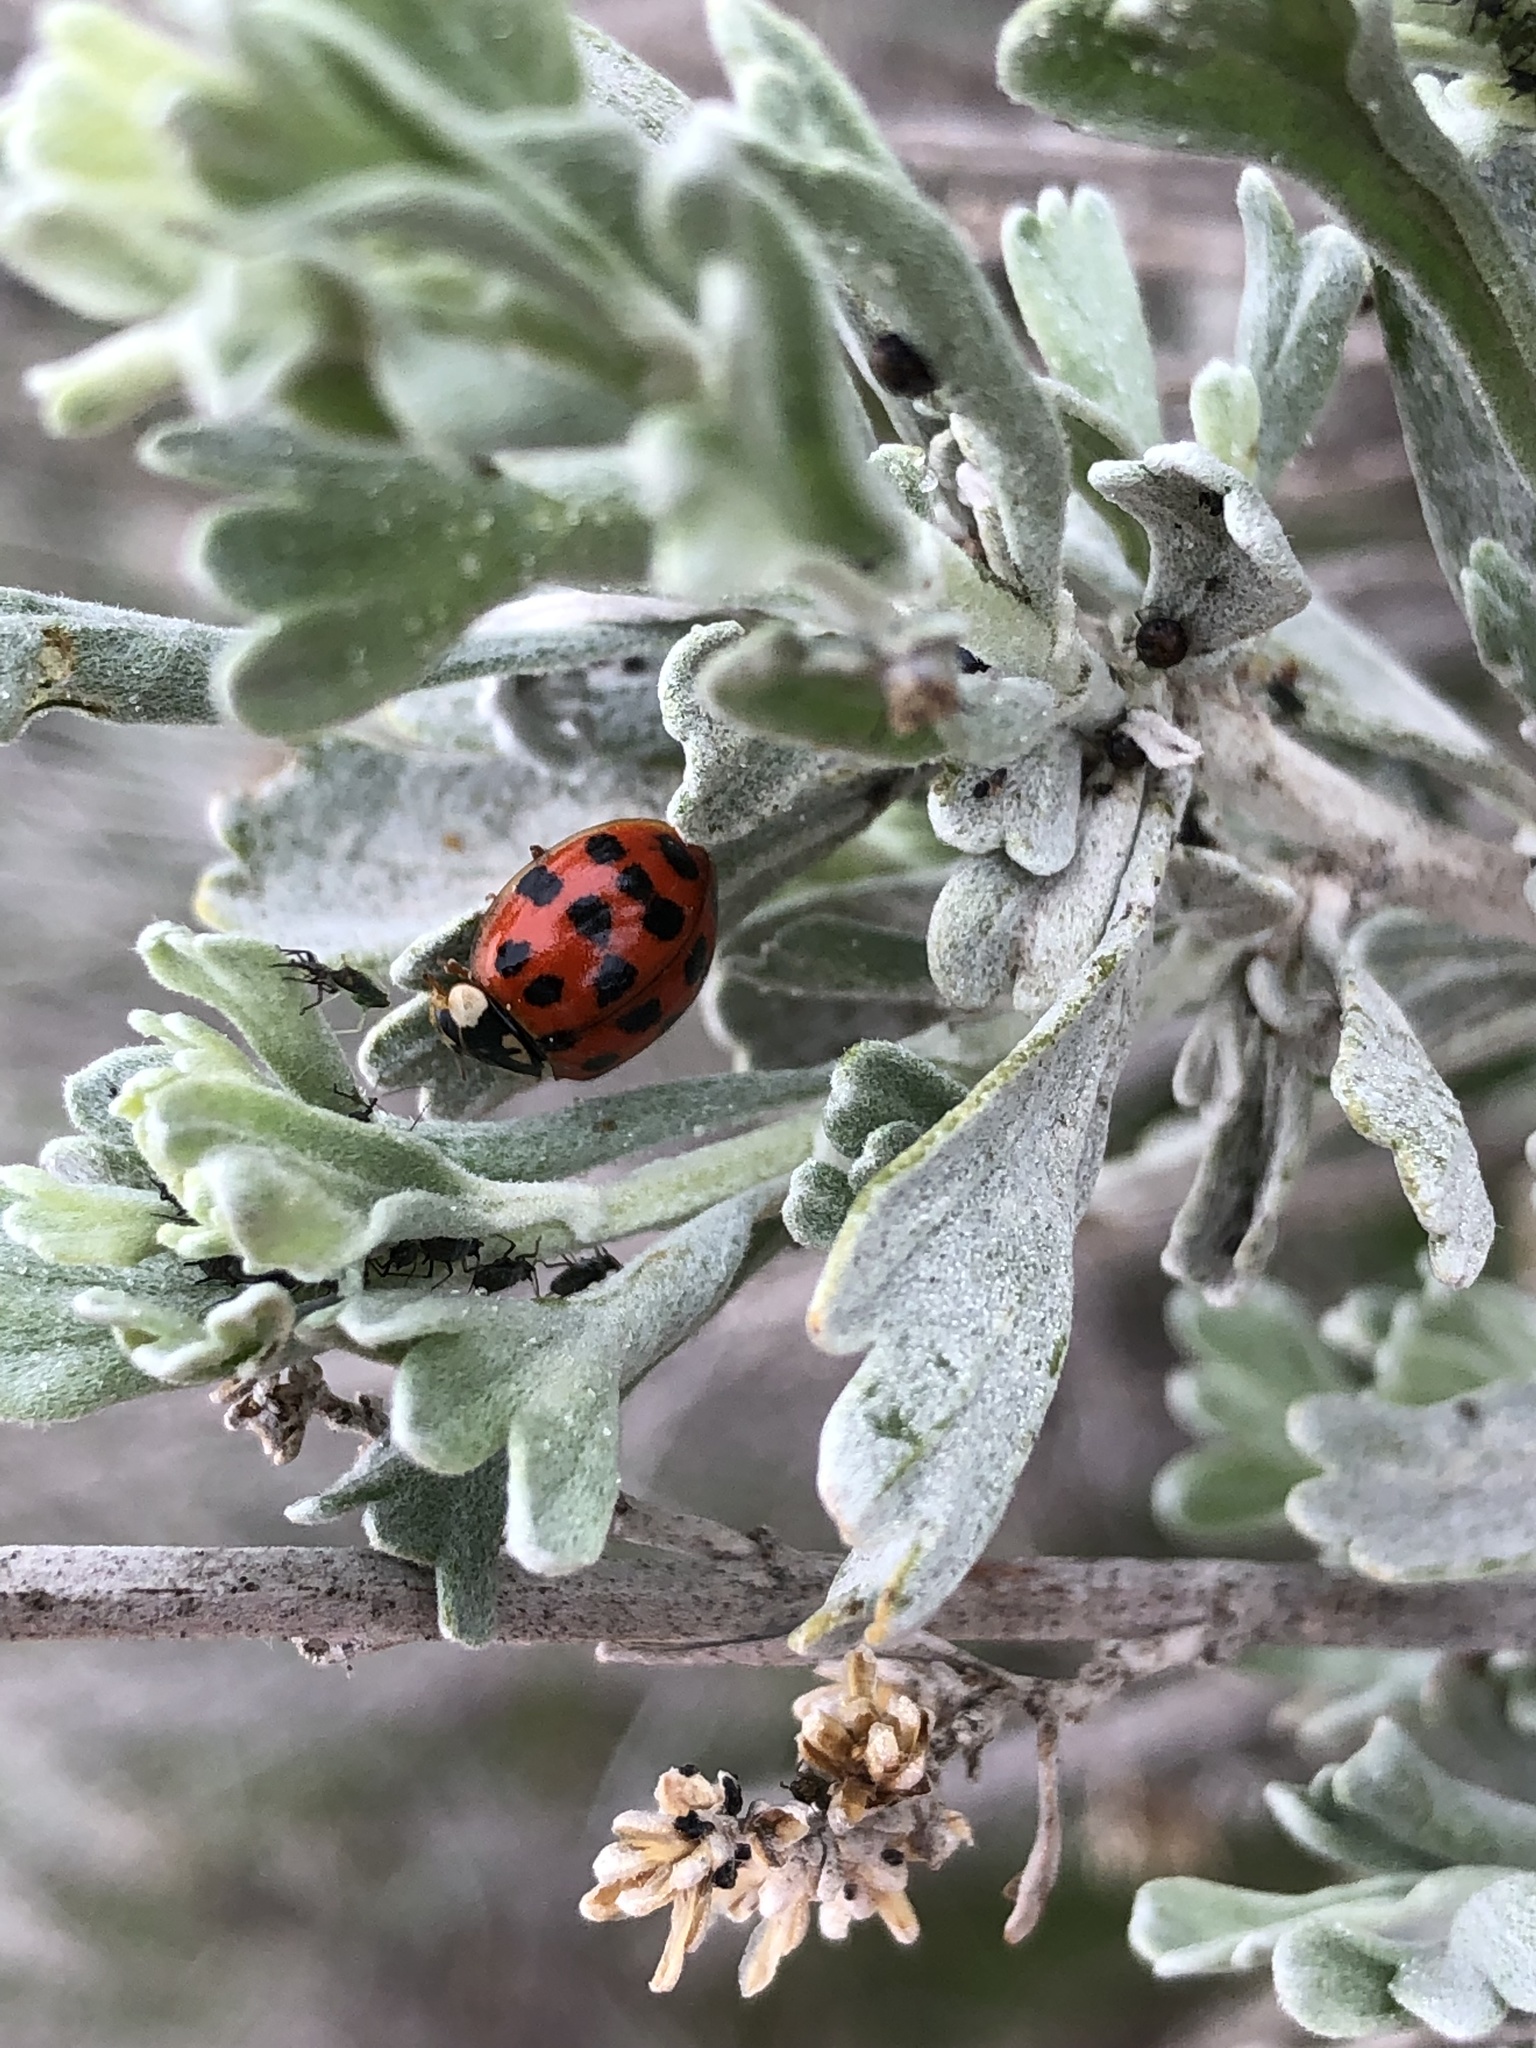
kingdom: Animalia
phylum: Arthropoda
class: Insecta
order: Coleoptera
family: Coccinellidae
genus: Harmonia
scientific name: Harmonia axyridis
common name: Harlequin ladybird
